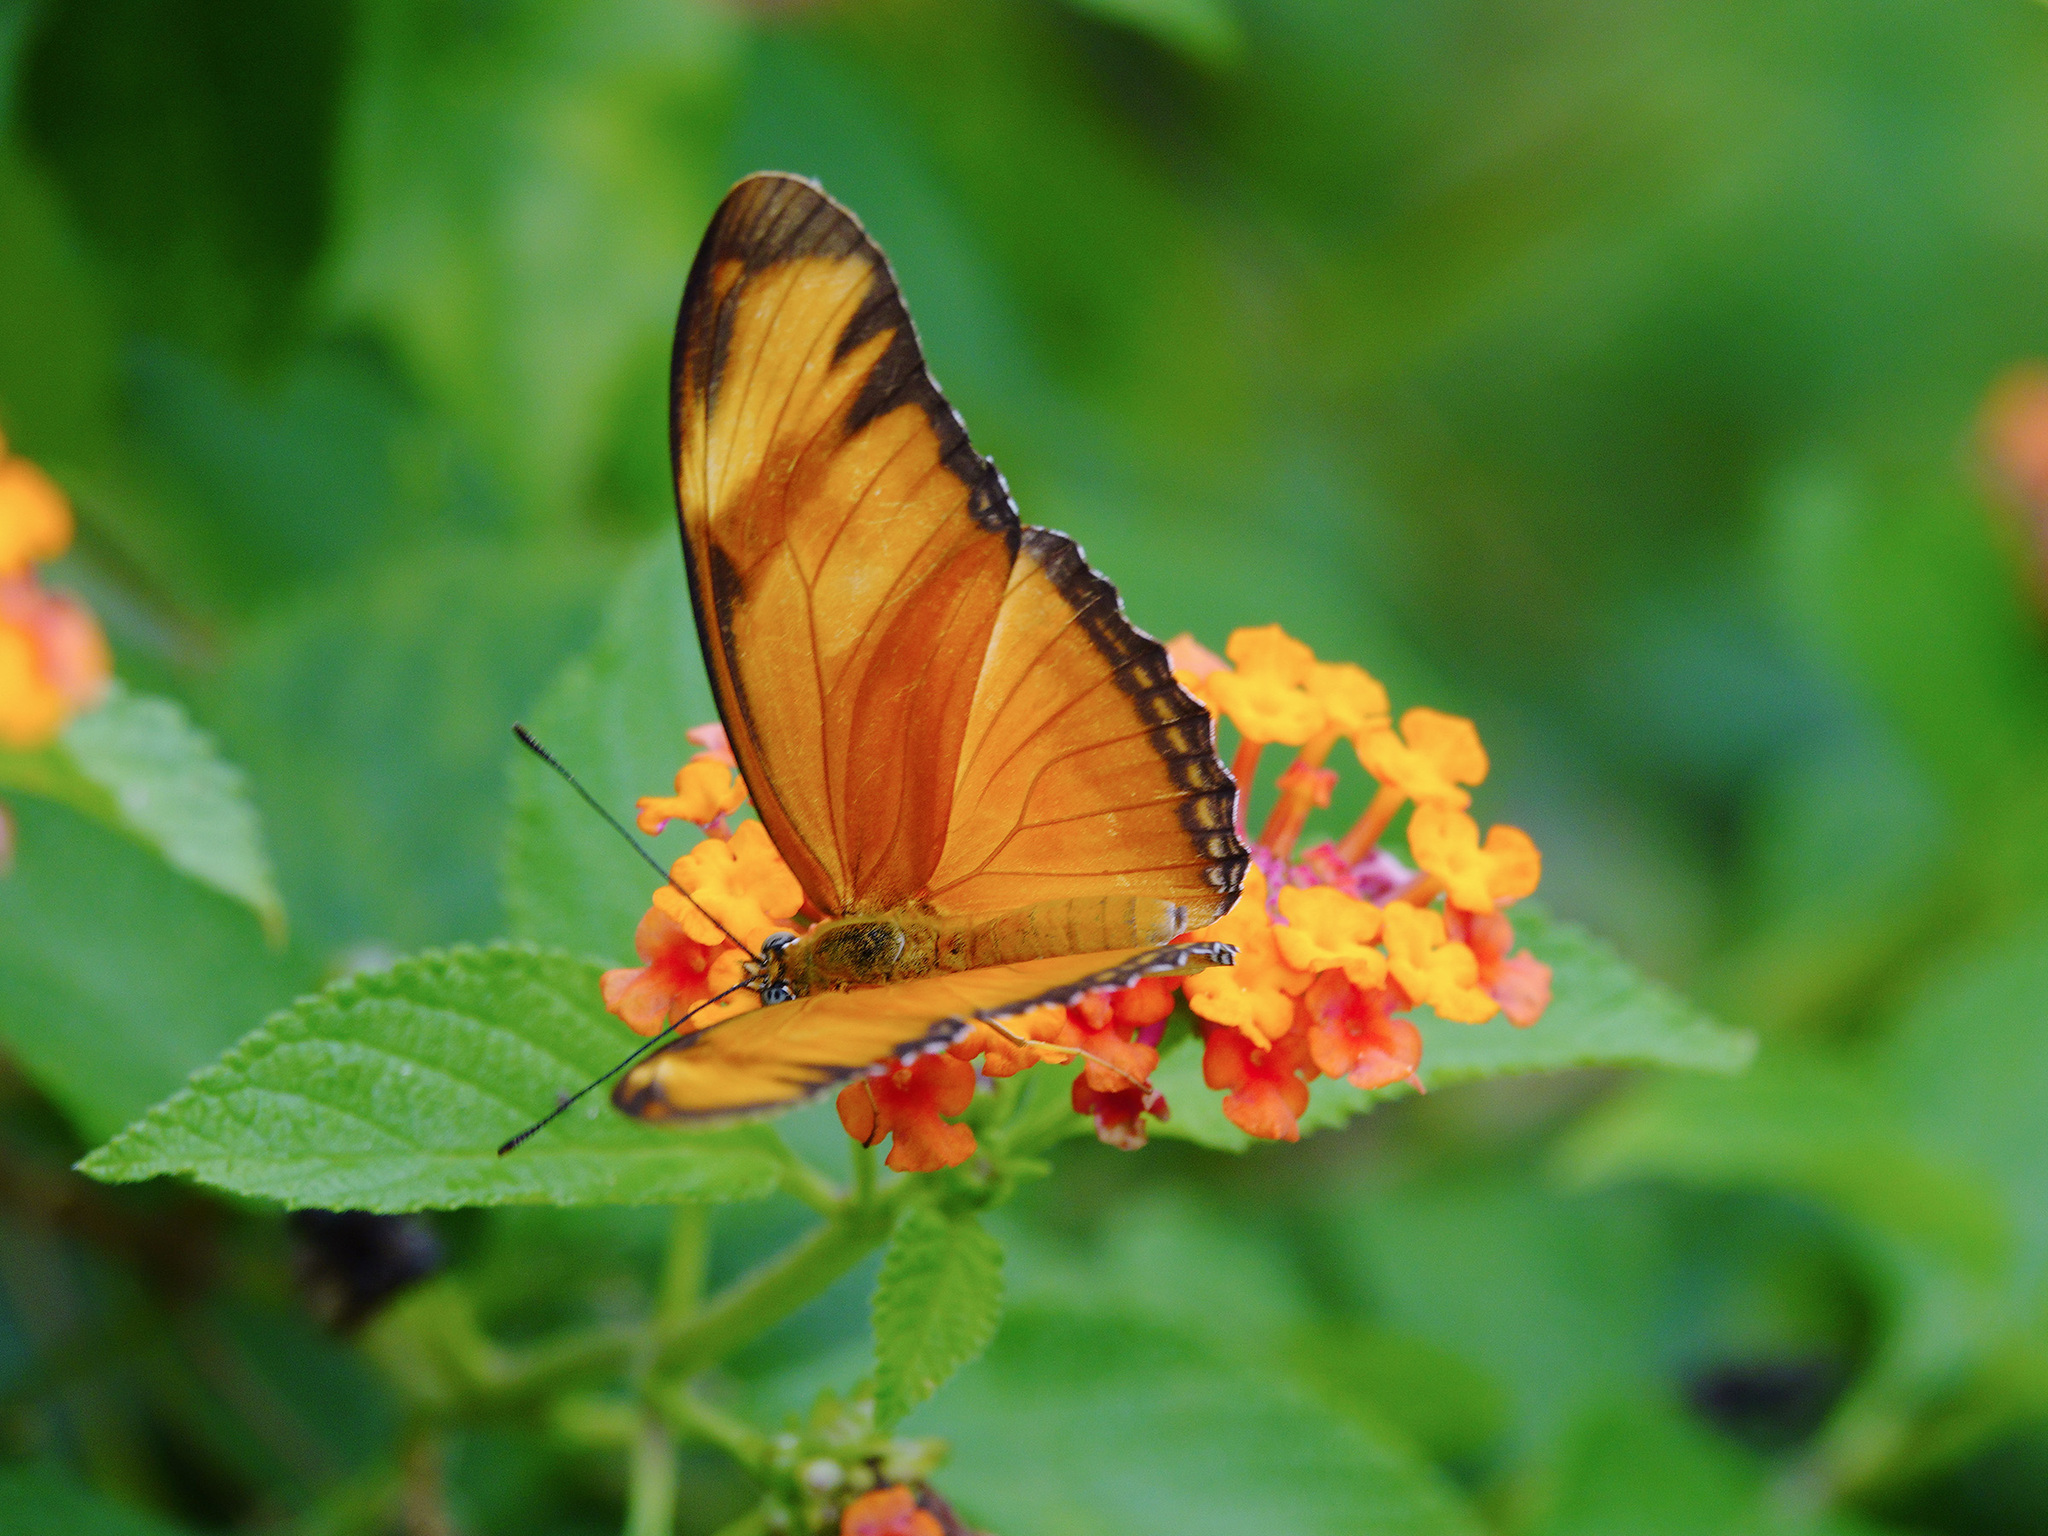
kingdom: Animalia
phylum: Arthropoda
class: Insecta
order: Lepidoptera
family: Nymphalidae
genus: Dryas
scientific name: Dryas iulia
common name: Flambeau
